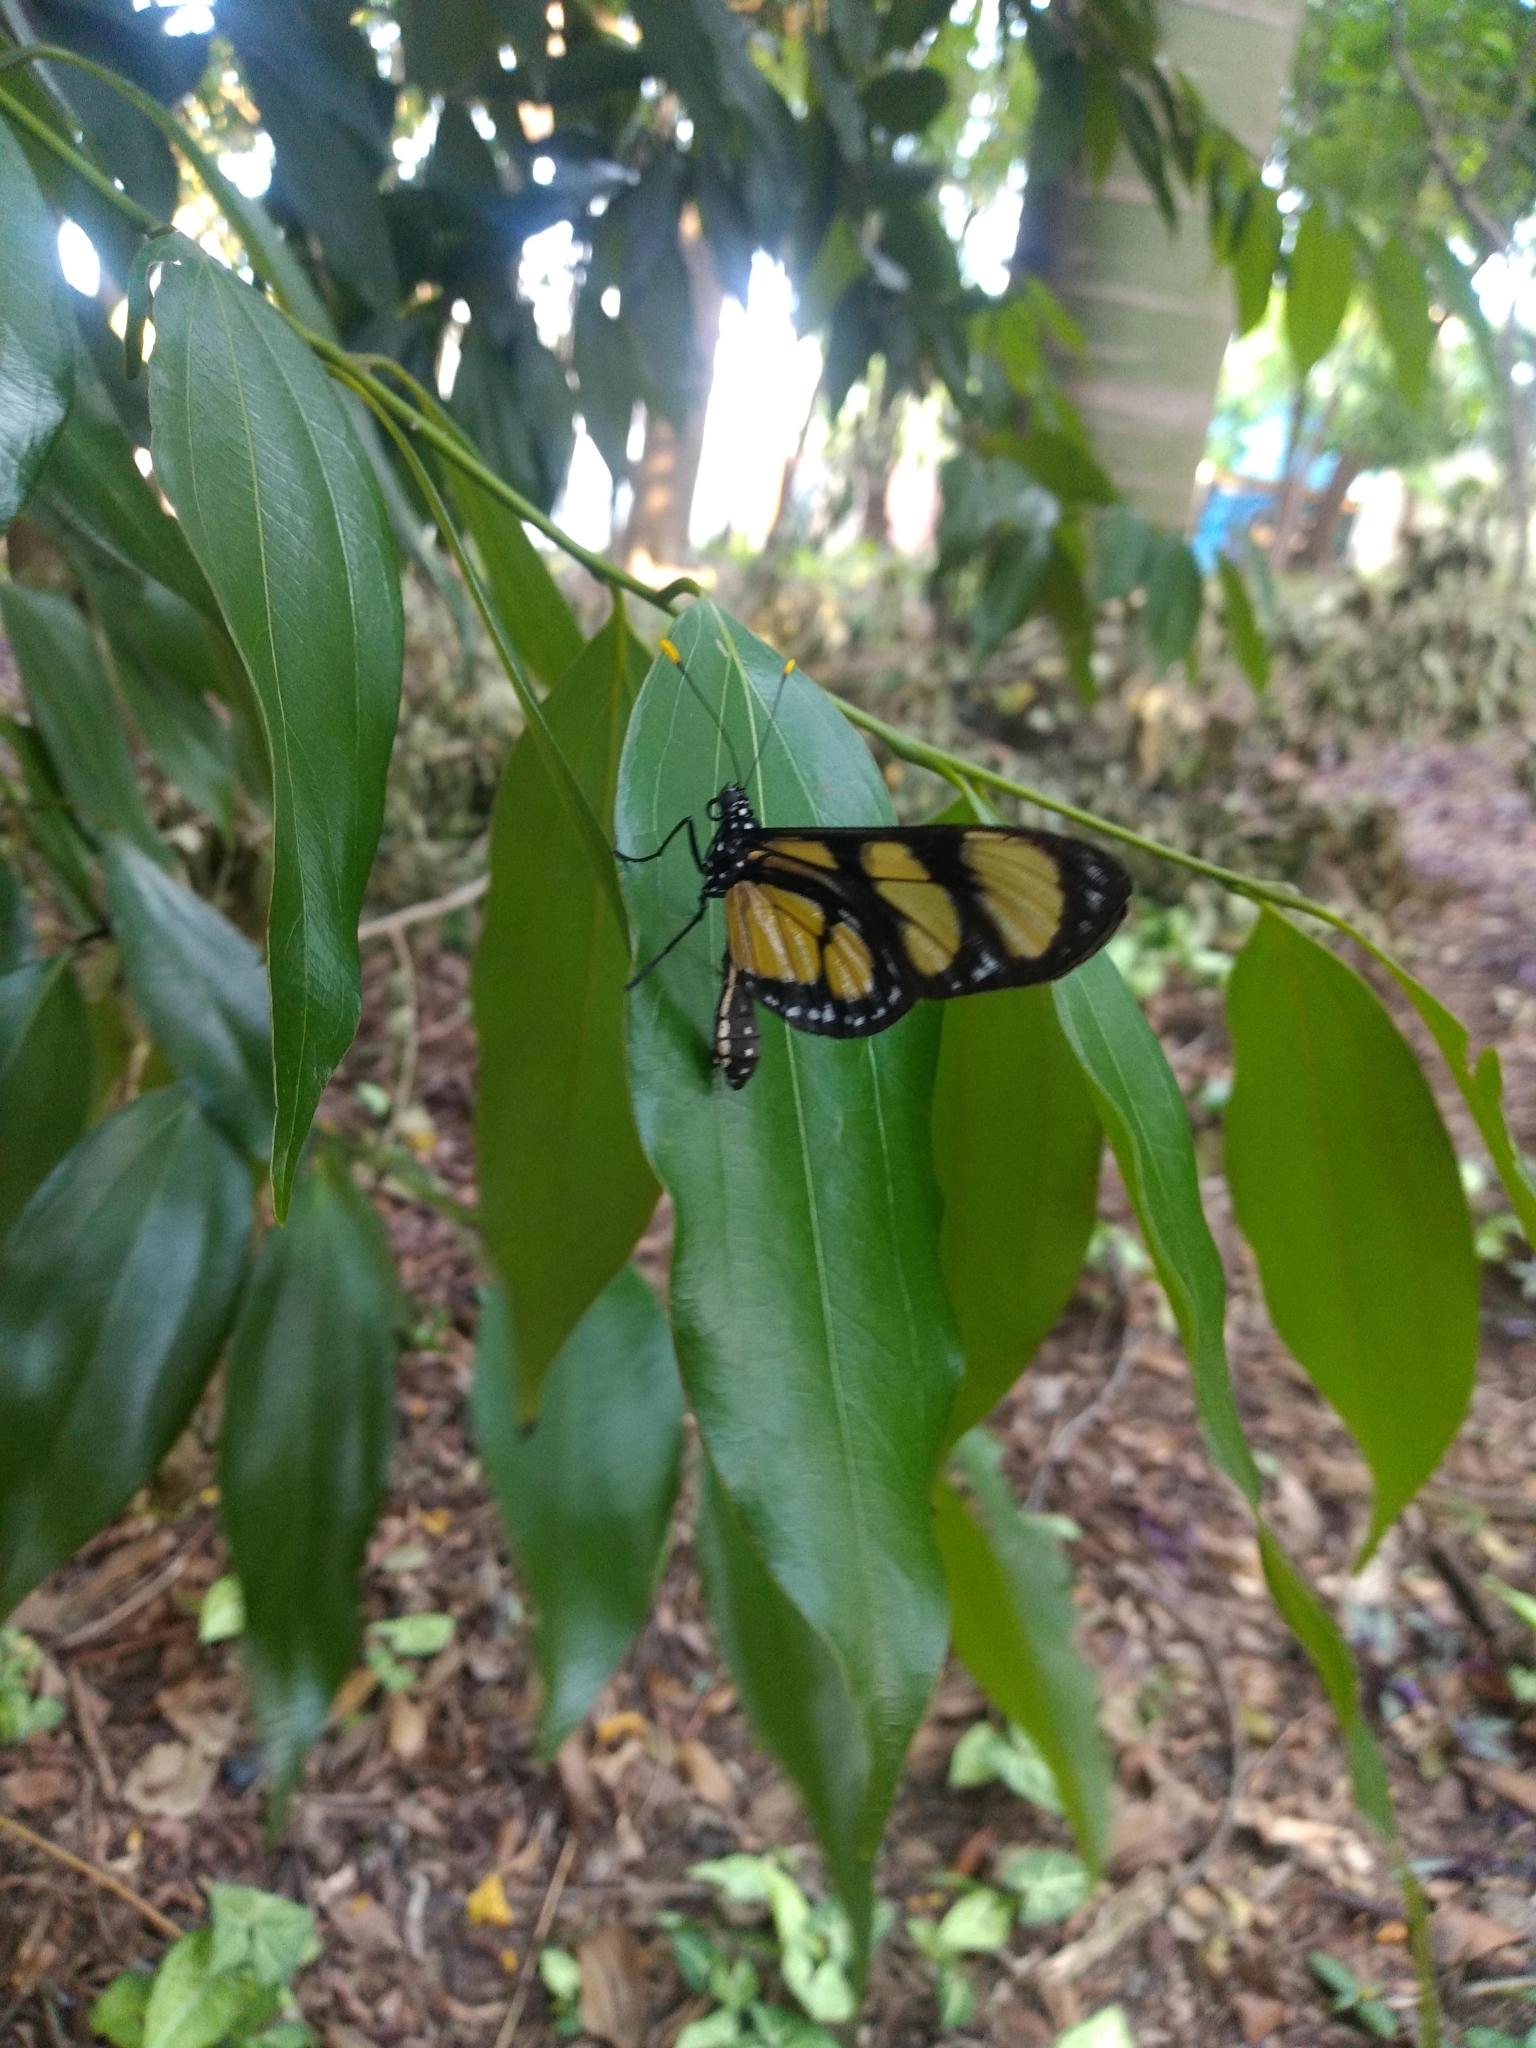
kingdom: Animalia
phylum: Arthropoda
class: Insecta
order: Lepidoptera
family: Nymphalidae
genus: Methona
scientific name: Methona themisto
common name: Themisto amberwing
